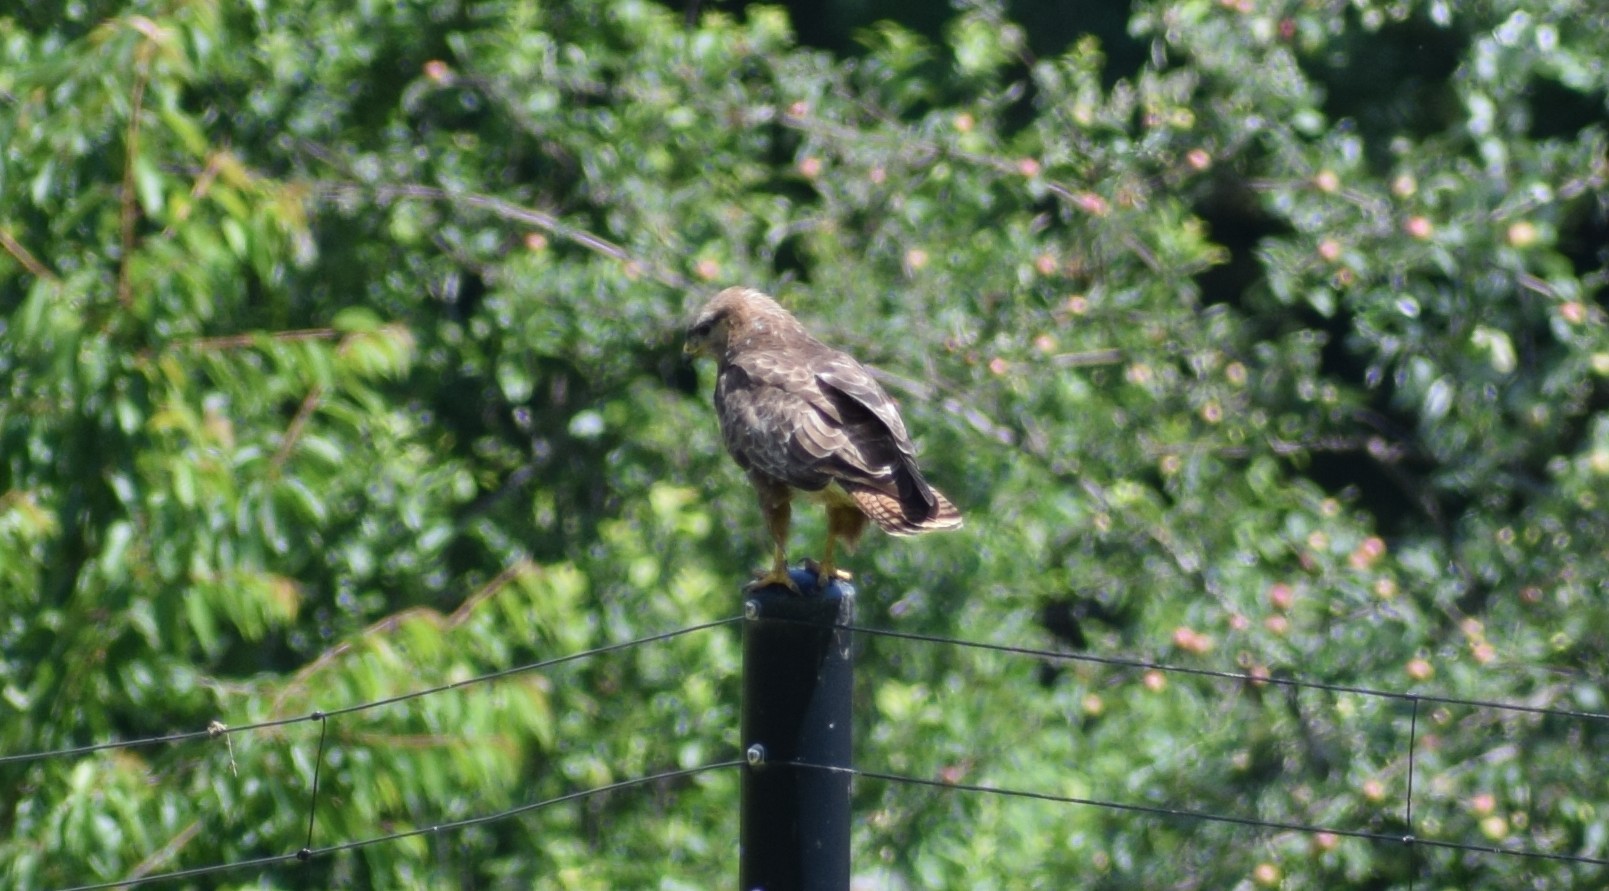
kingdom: Animalia
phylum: Chordata
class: Aves
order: Accipitriformes
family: Accipitridae
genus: Buteo
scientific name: Buteo buteo
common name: Common buzzard
